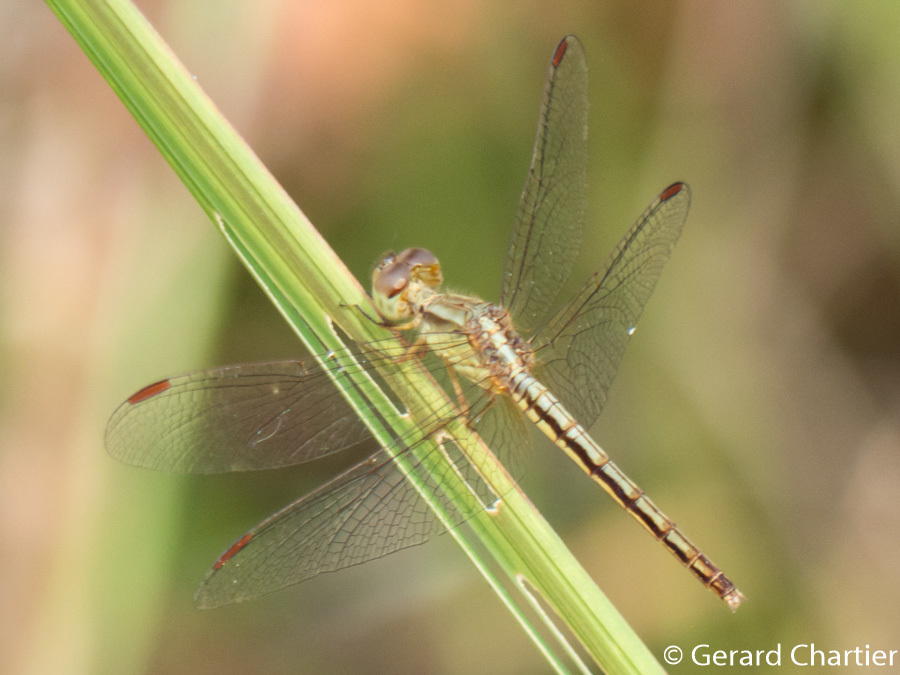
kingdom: Animalia
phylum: Arthropoda
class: Insecta
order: Odonata
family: Libellulidae
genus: Neurothemis
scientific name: Neurothemis intermedia
